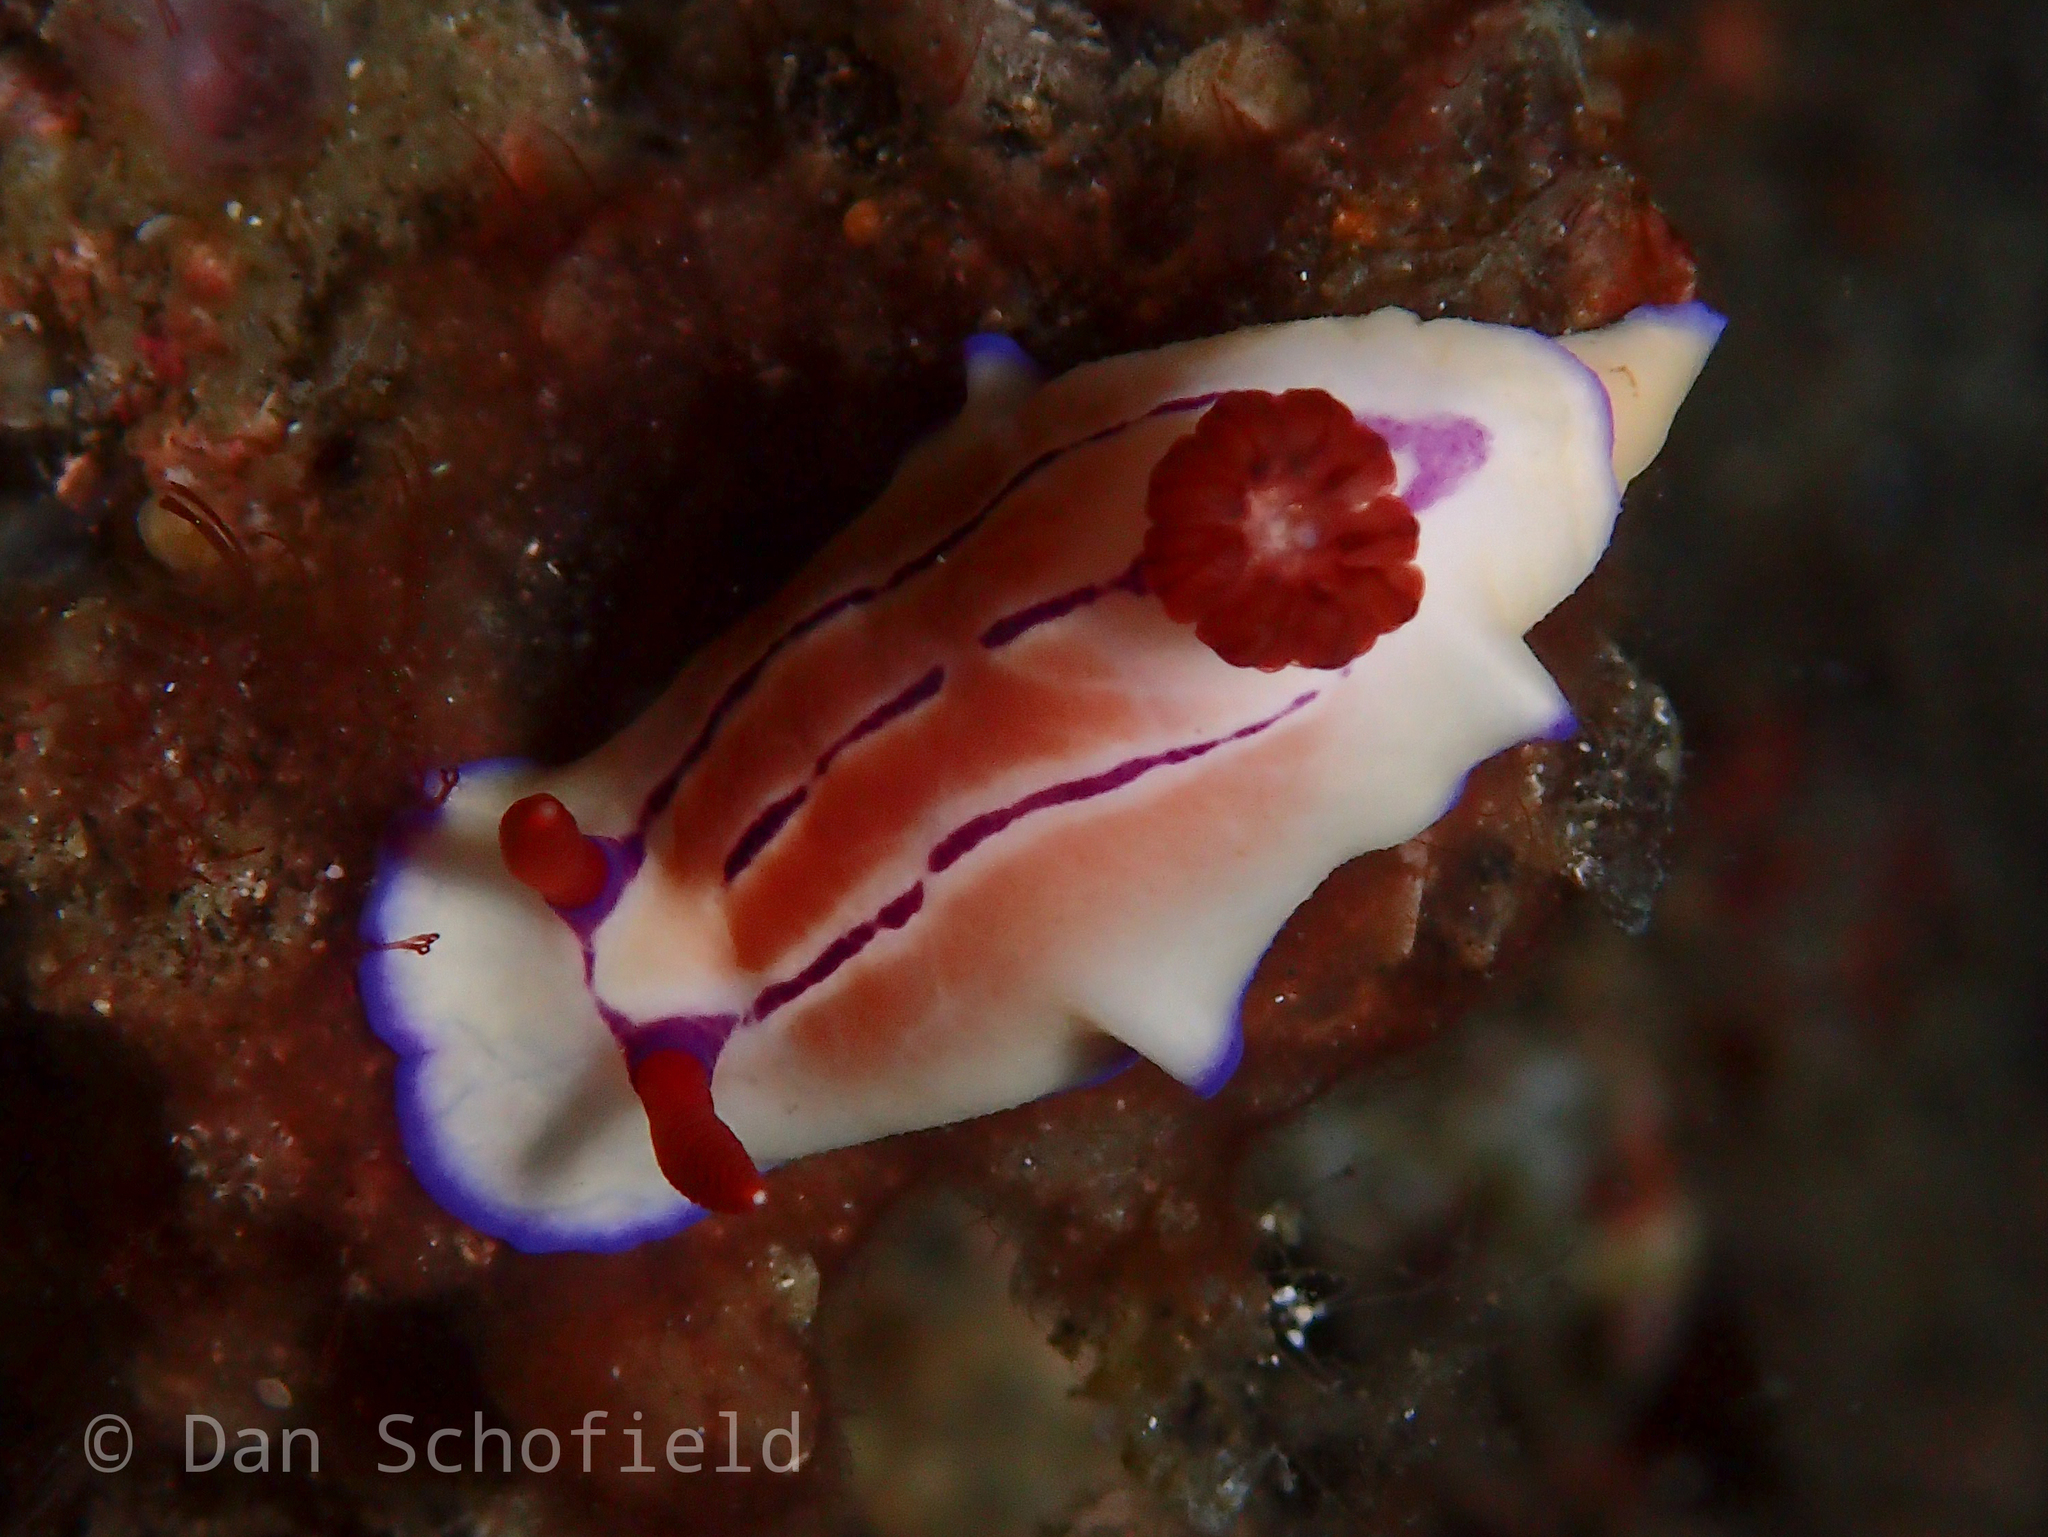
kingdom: Animalia
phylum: Mollusca
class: Gastropoda
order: Nudibranchia
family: Chromodorididae
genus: Hypselodoris
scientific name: Hypselodoris emma
